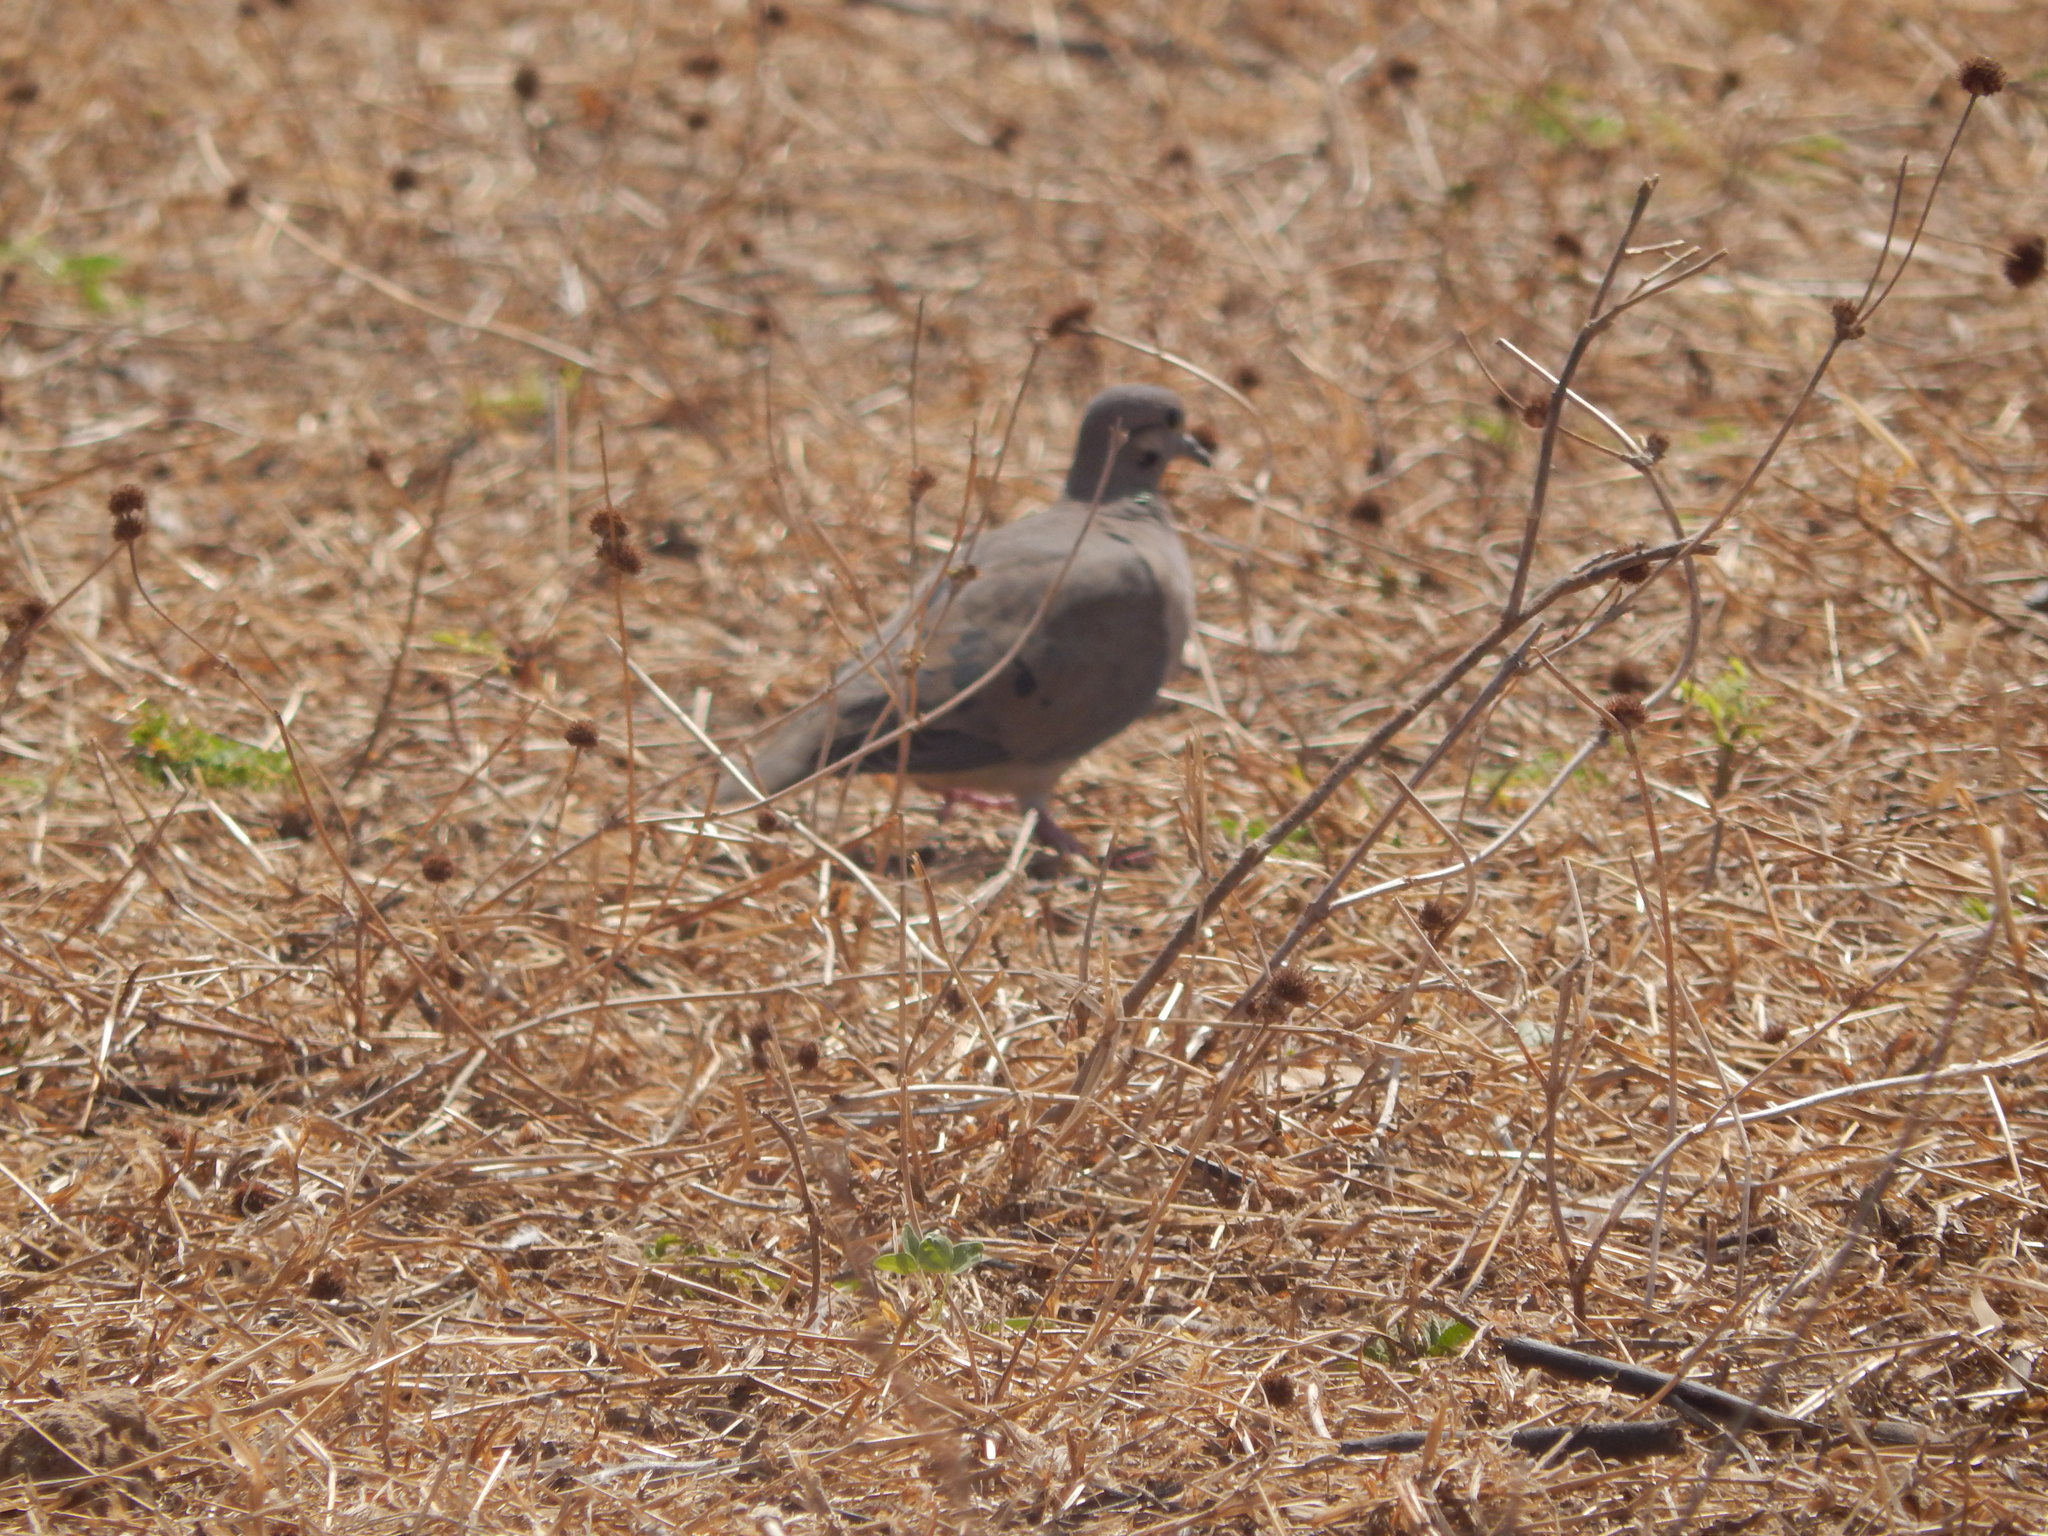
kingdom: Animalia
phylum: Chordata
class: Aves
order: Columbiformes
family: Columbidae
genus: Zenaida
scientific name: Zenaida auriculata
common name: Eared dove
